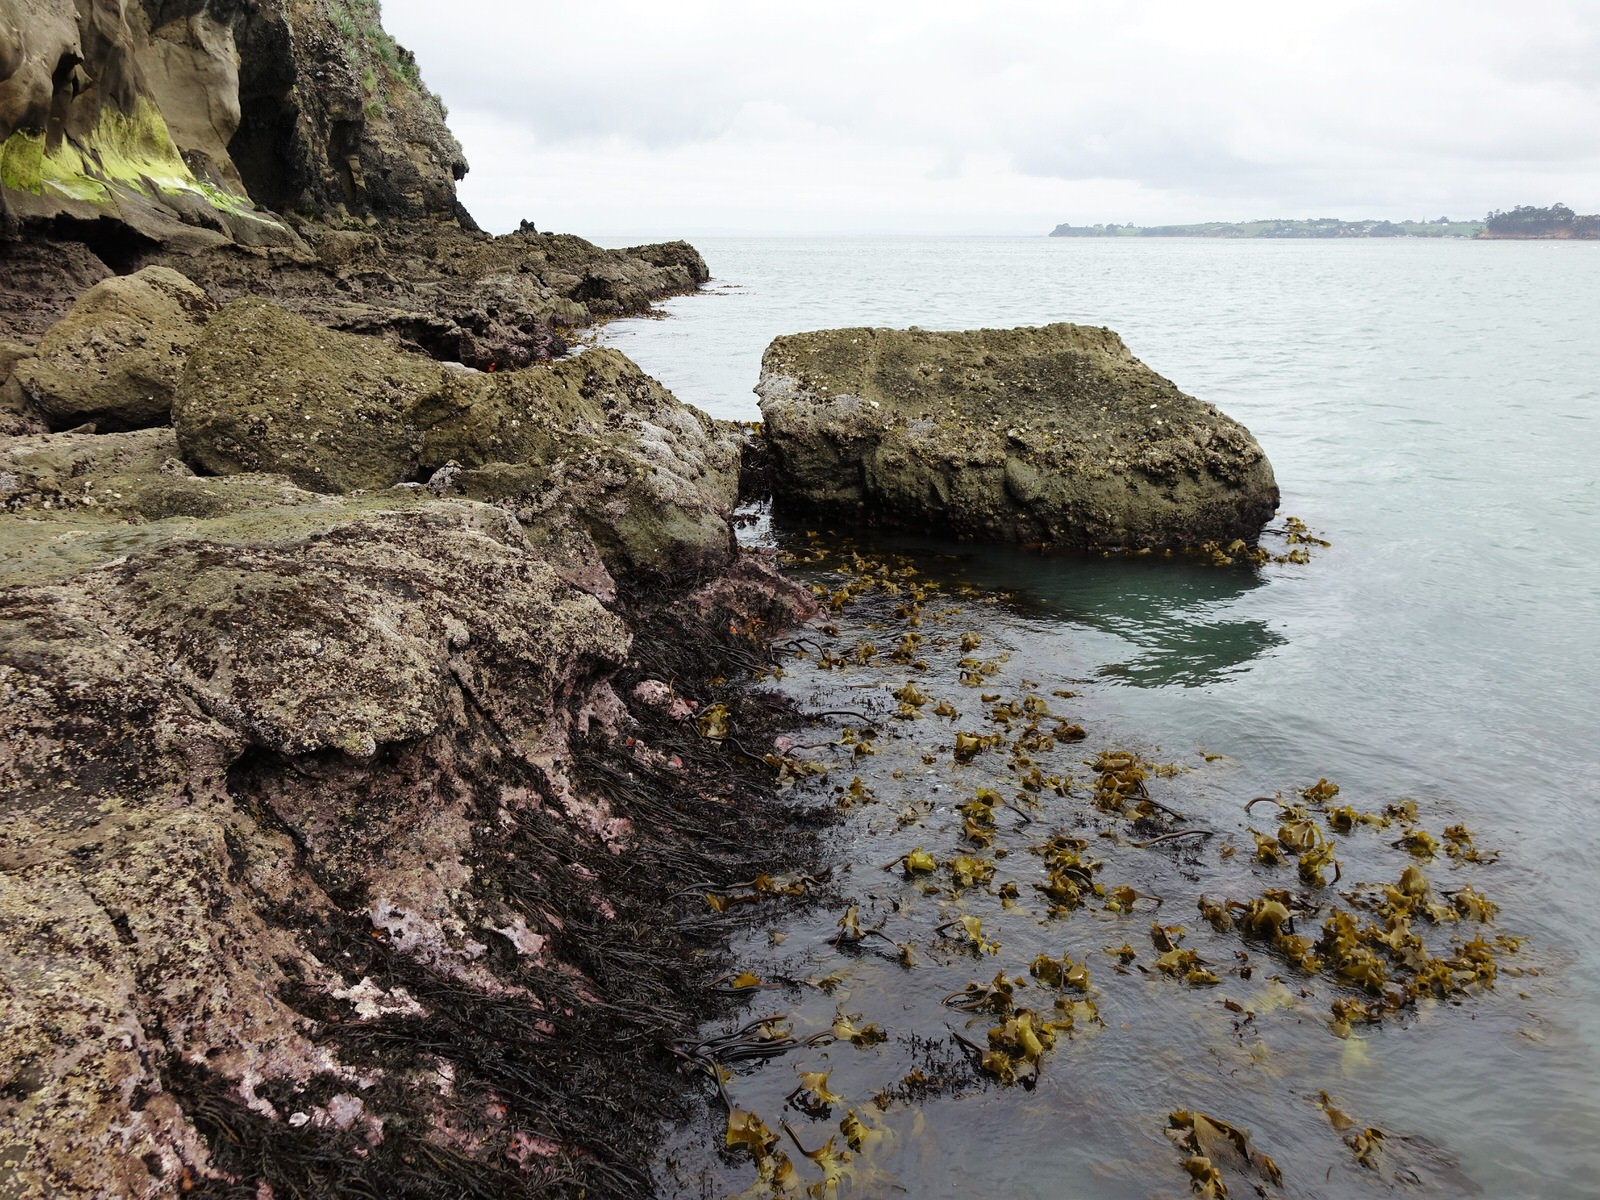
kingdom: Chromista
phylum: Ochrophyta
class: Phaeophyceae
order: Laminariales
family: Lessoniaceae
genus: Ecklonia
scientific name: Ecklonia radiata
